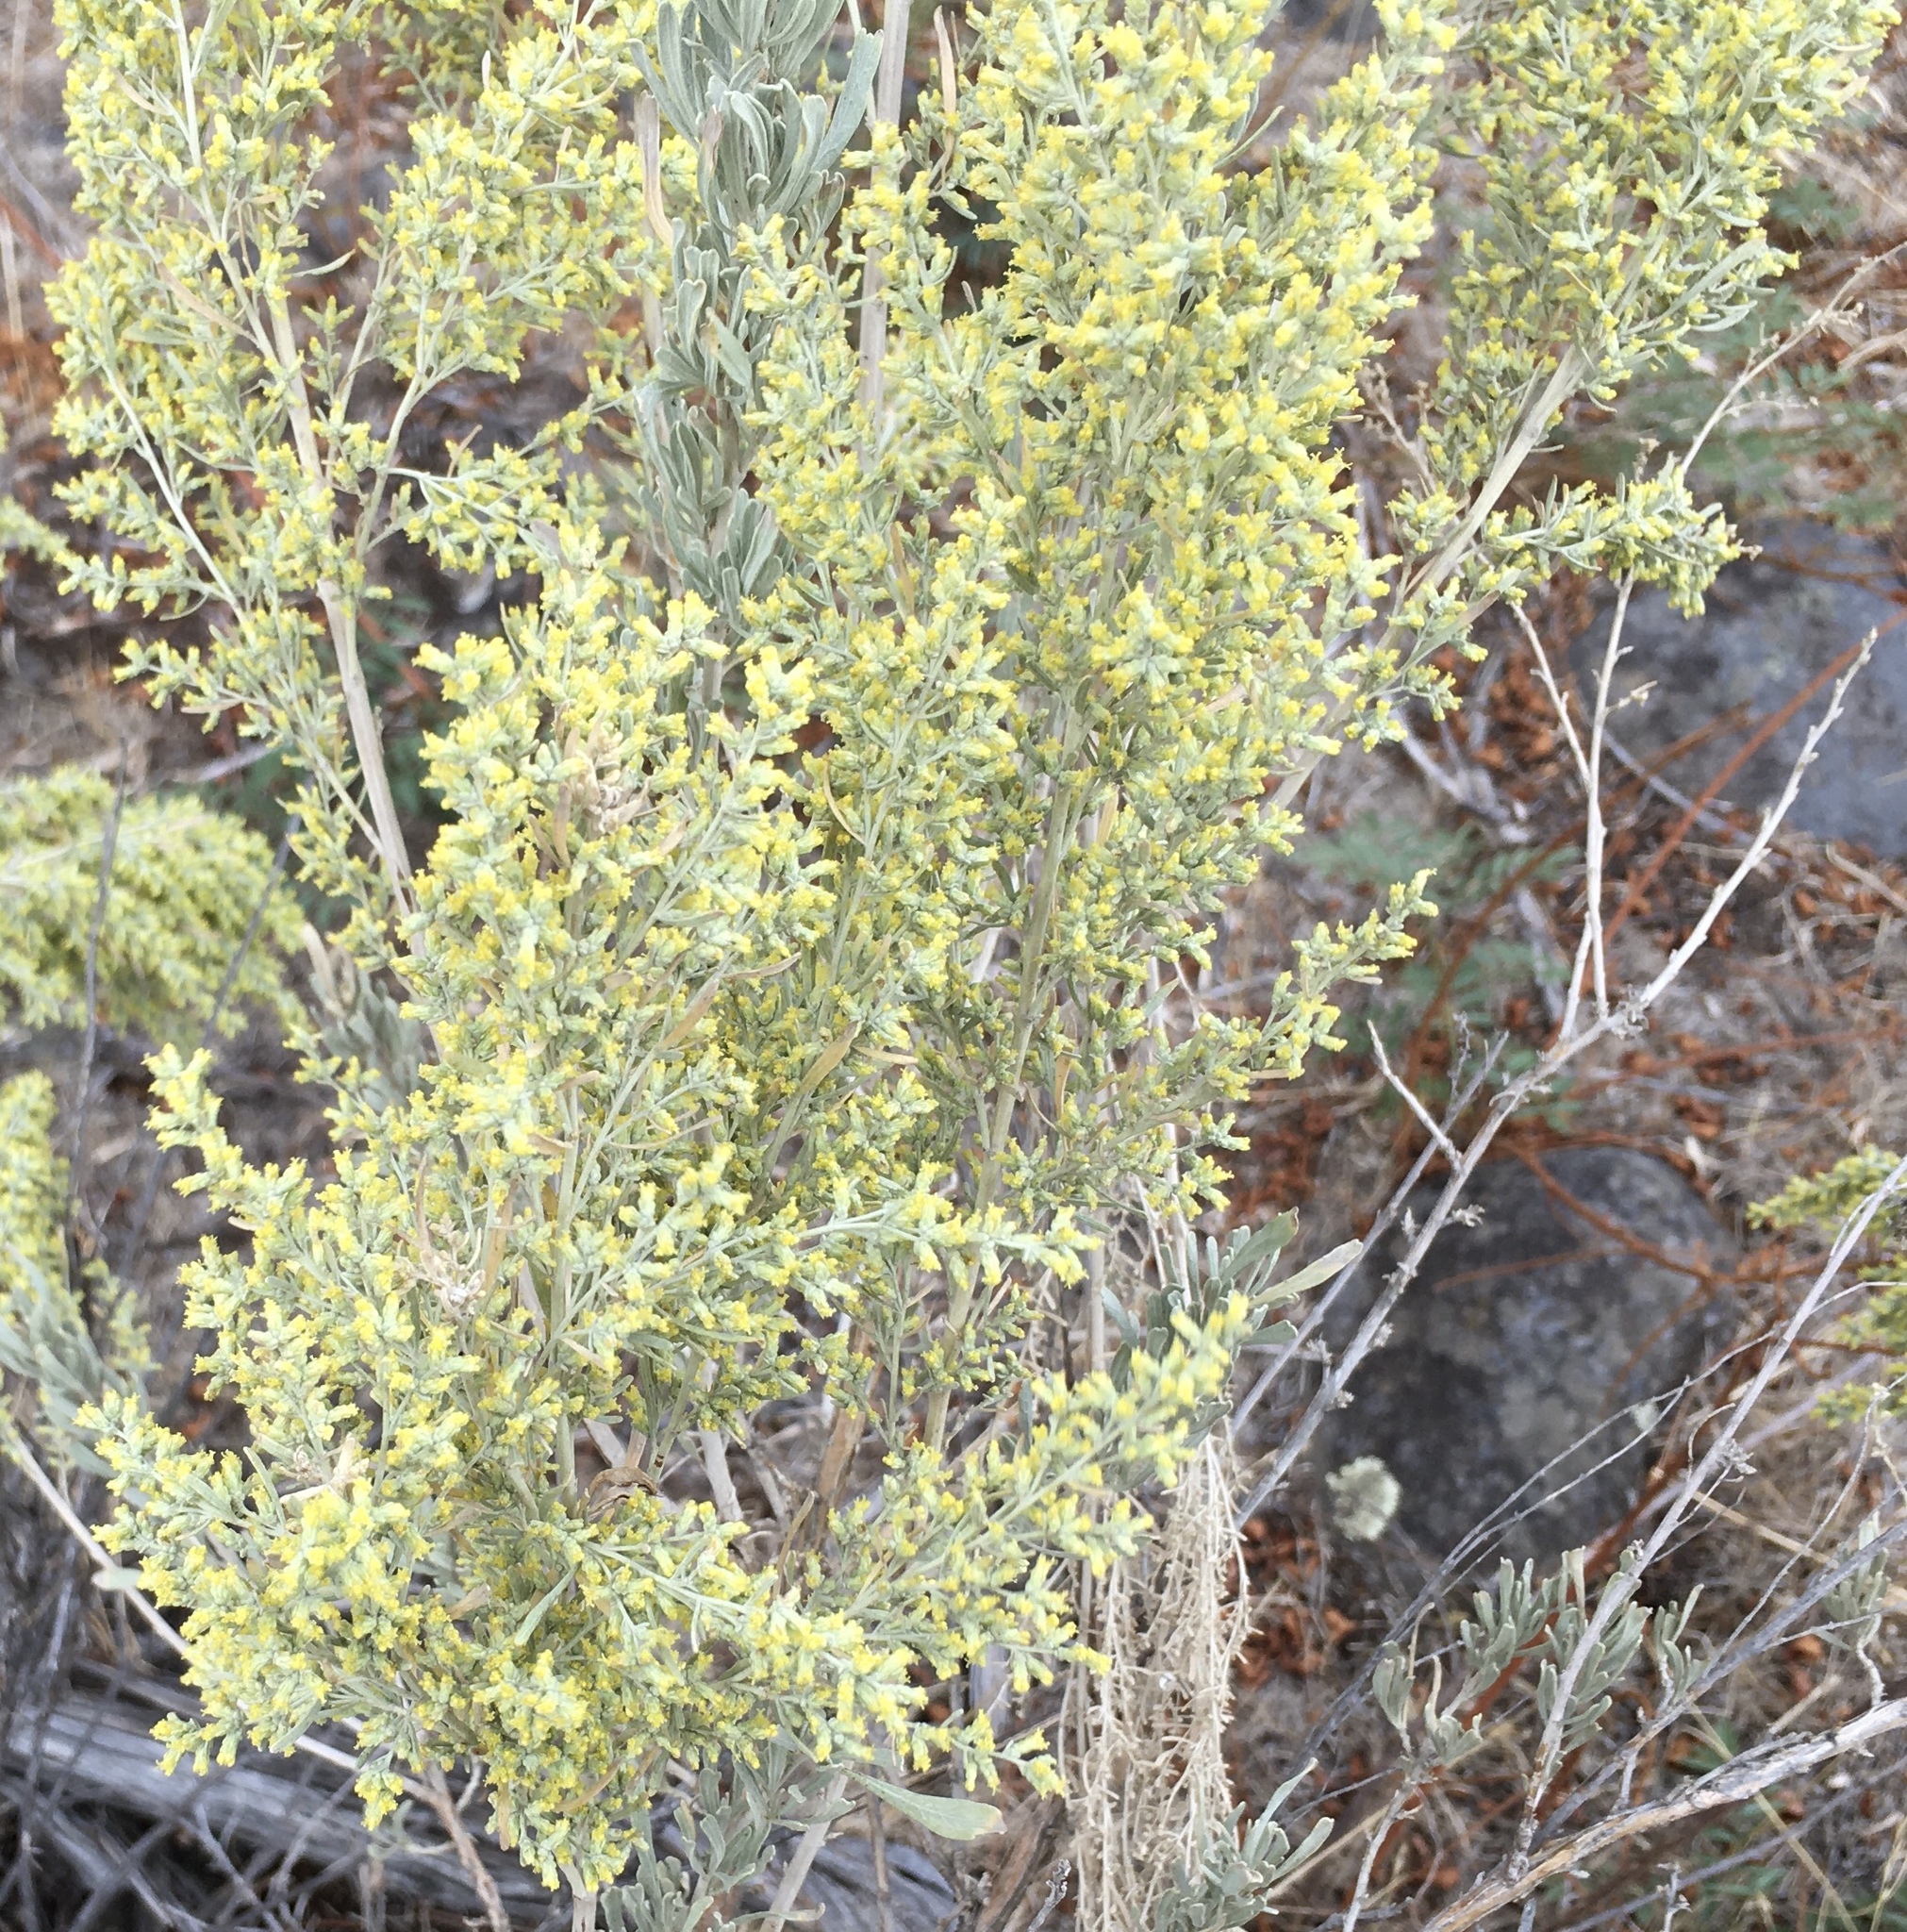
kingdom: Plantae
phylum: Tracheophyta
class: Magnoliopsida
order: Asterales
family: Asteraceae
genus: Artemisia
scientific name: Artemisia tridentata
